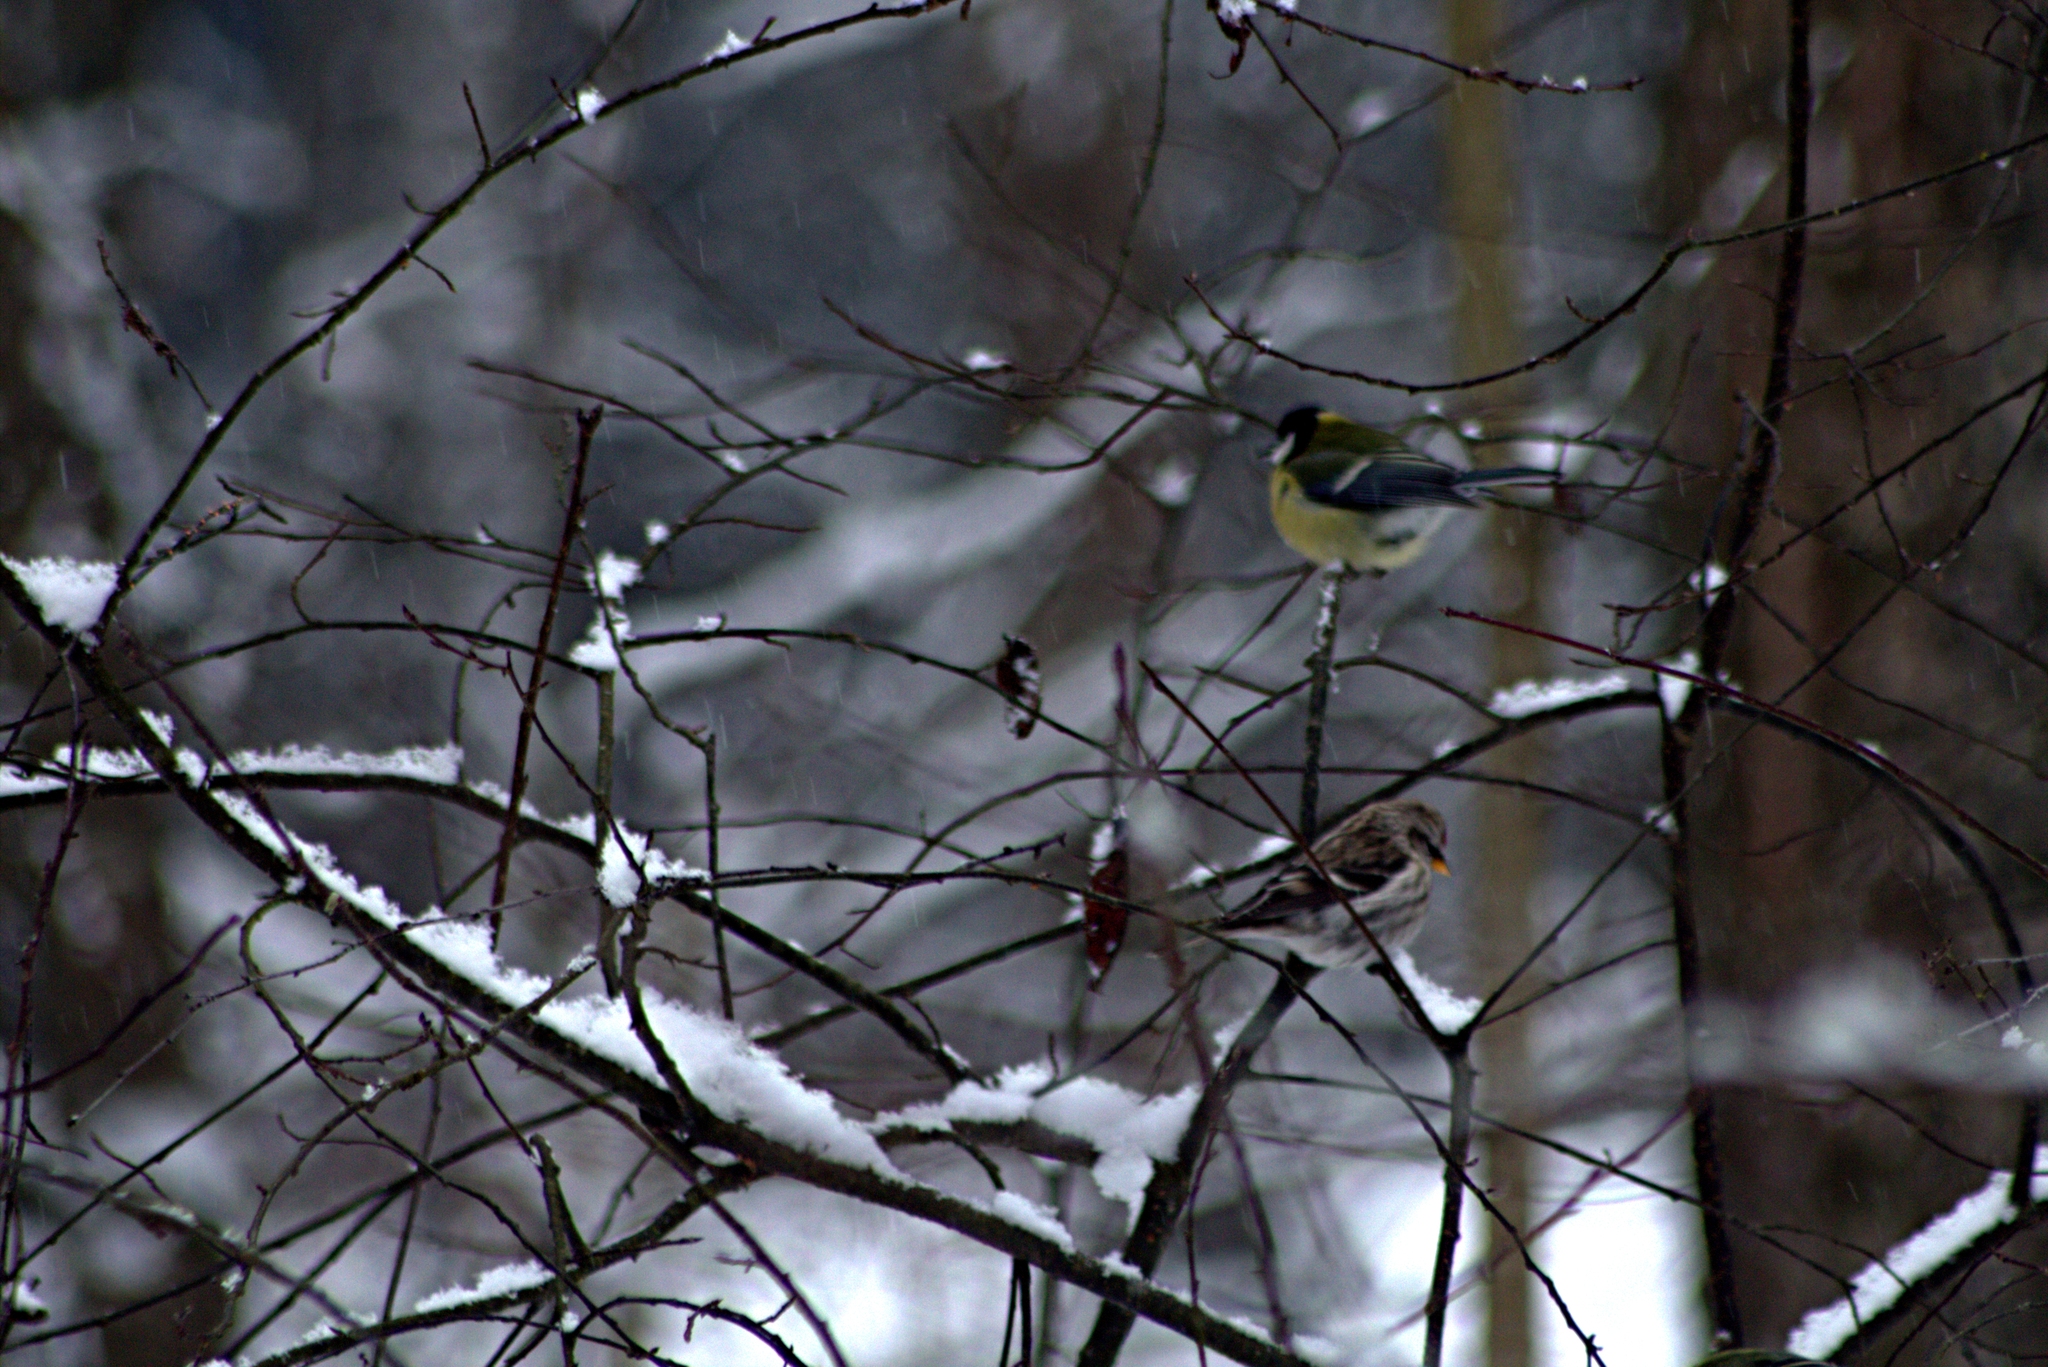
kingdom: Animalia
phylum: Chordata
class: Aves
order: Passeriformes
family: Fringillidae
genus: Acanthis
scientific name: Acanthis flammea
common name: Common redpoll
